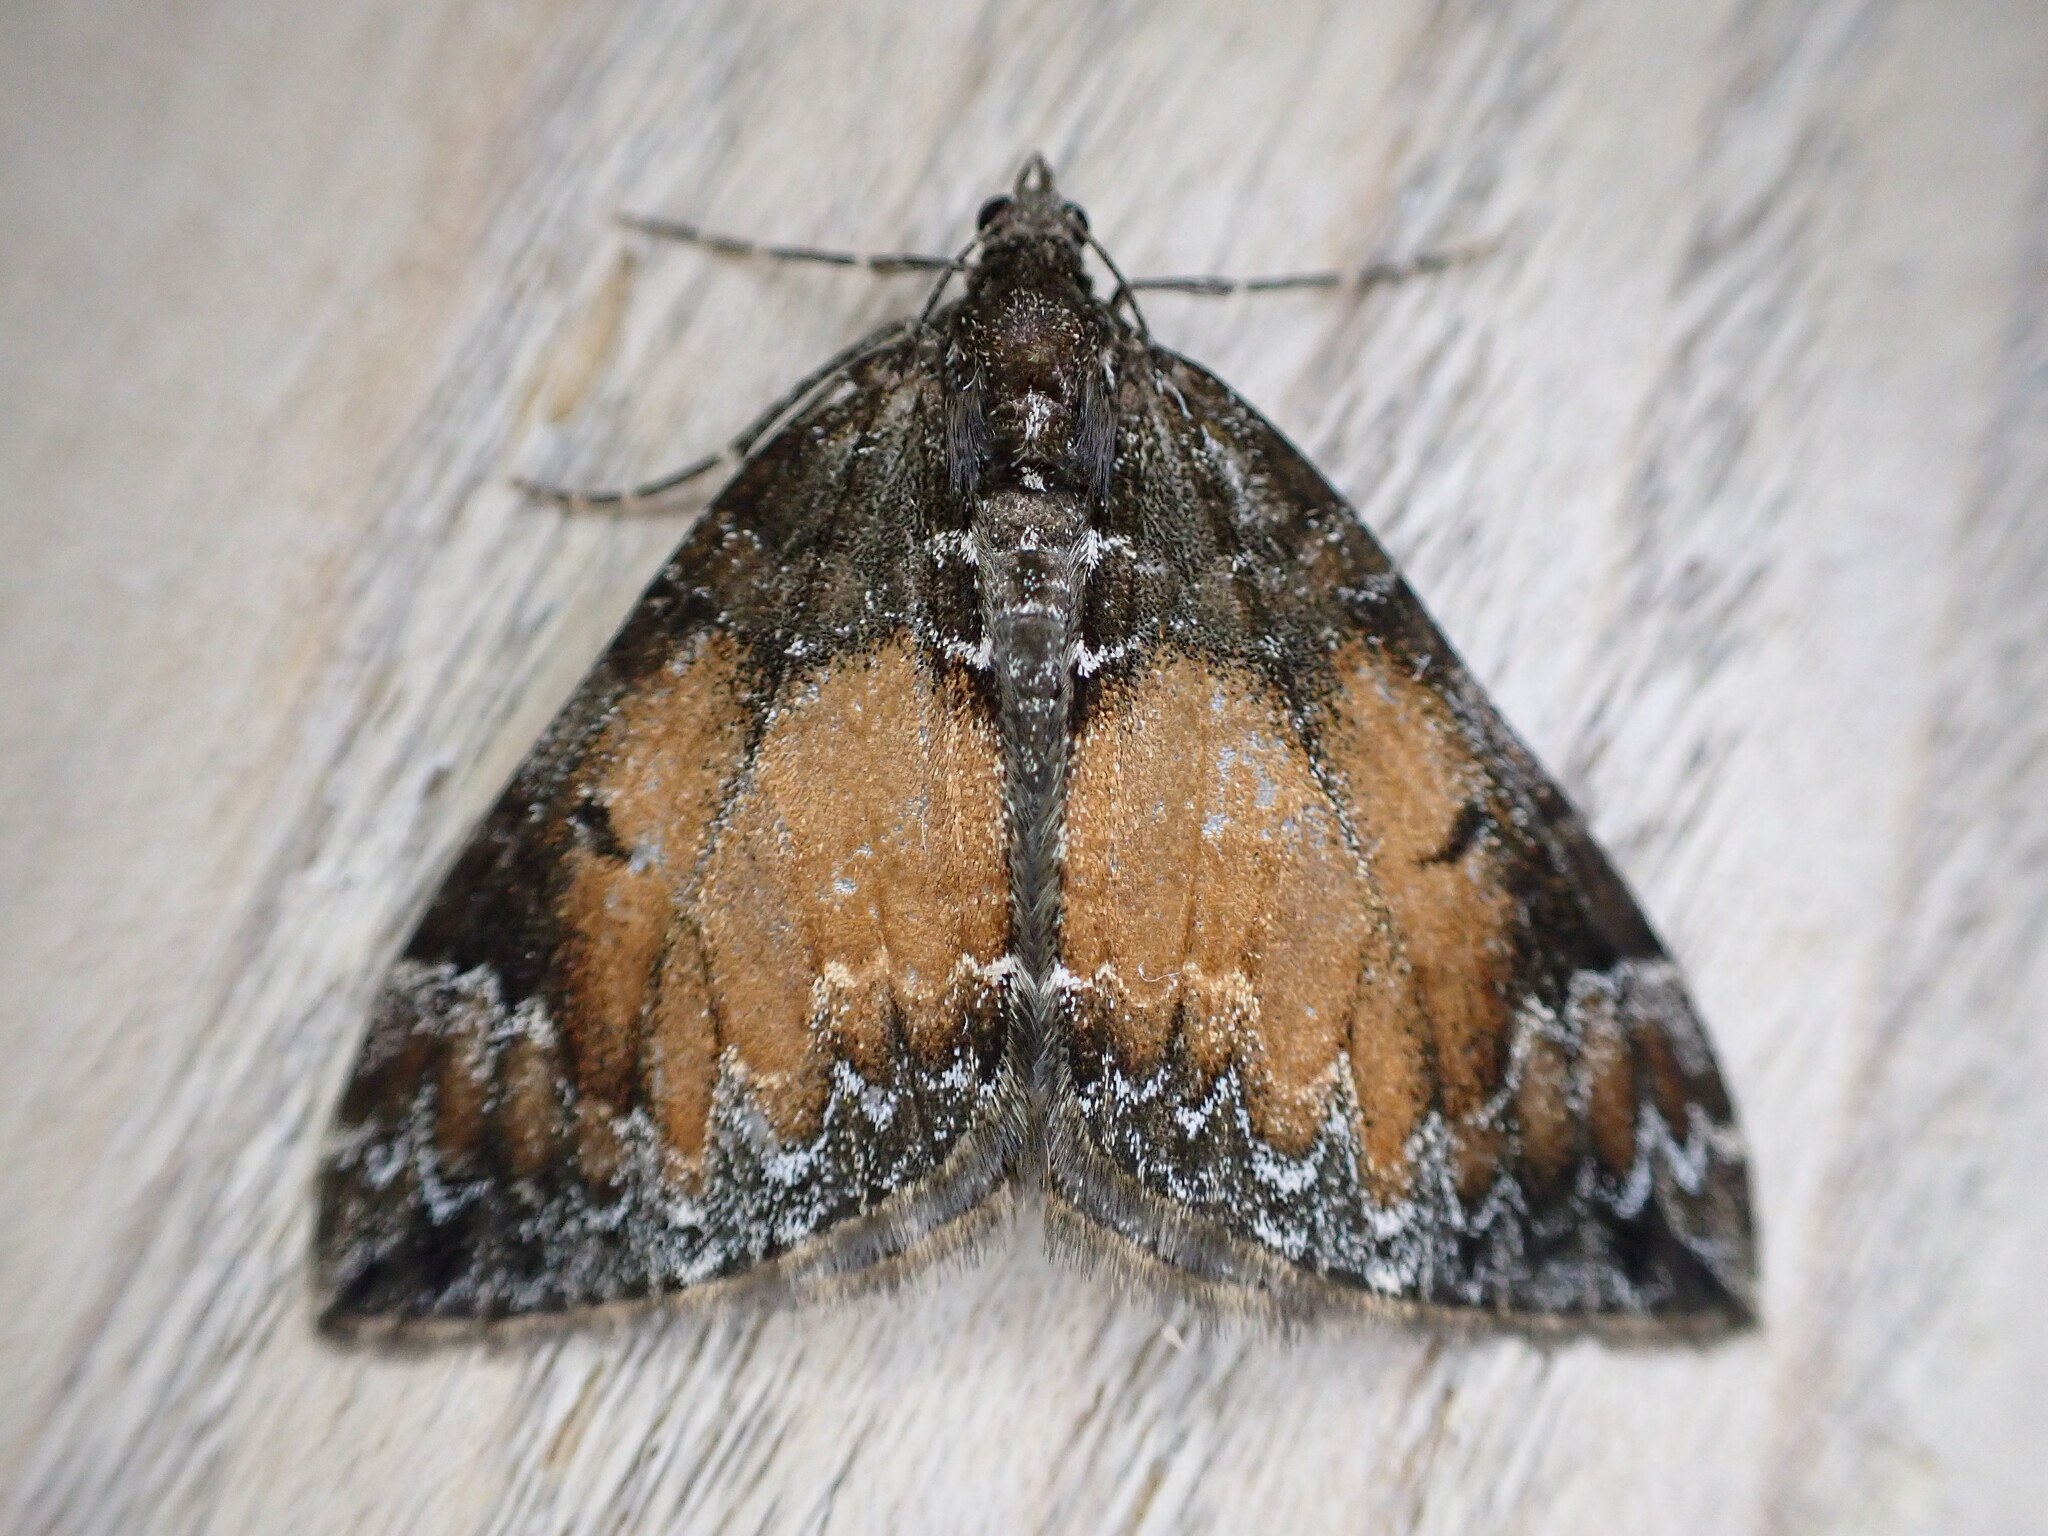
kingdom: Animalia
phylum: Arthropoda
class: Insecta
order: Lepidoptera
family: Geometridae
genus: Dysstroma
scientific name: Dysstroma truncata
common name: Common marbled carpet
